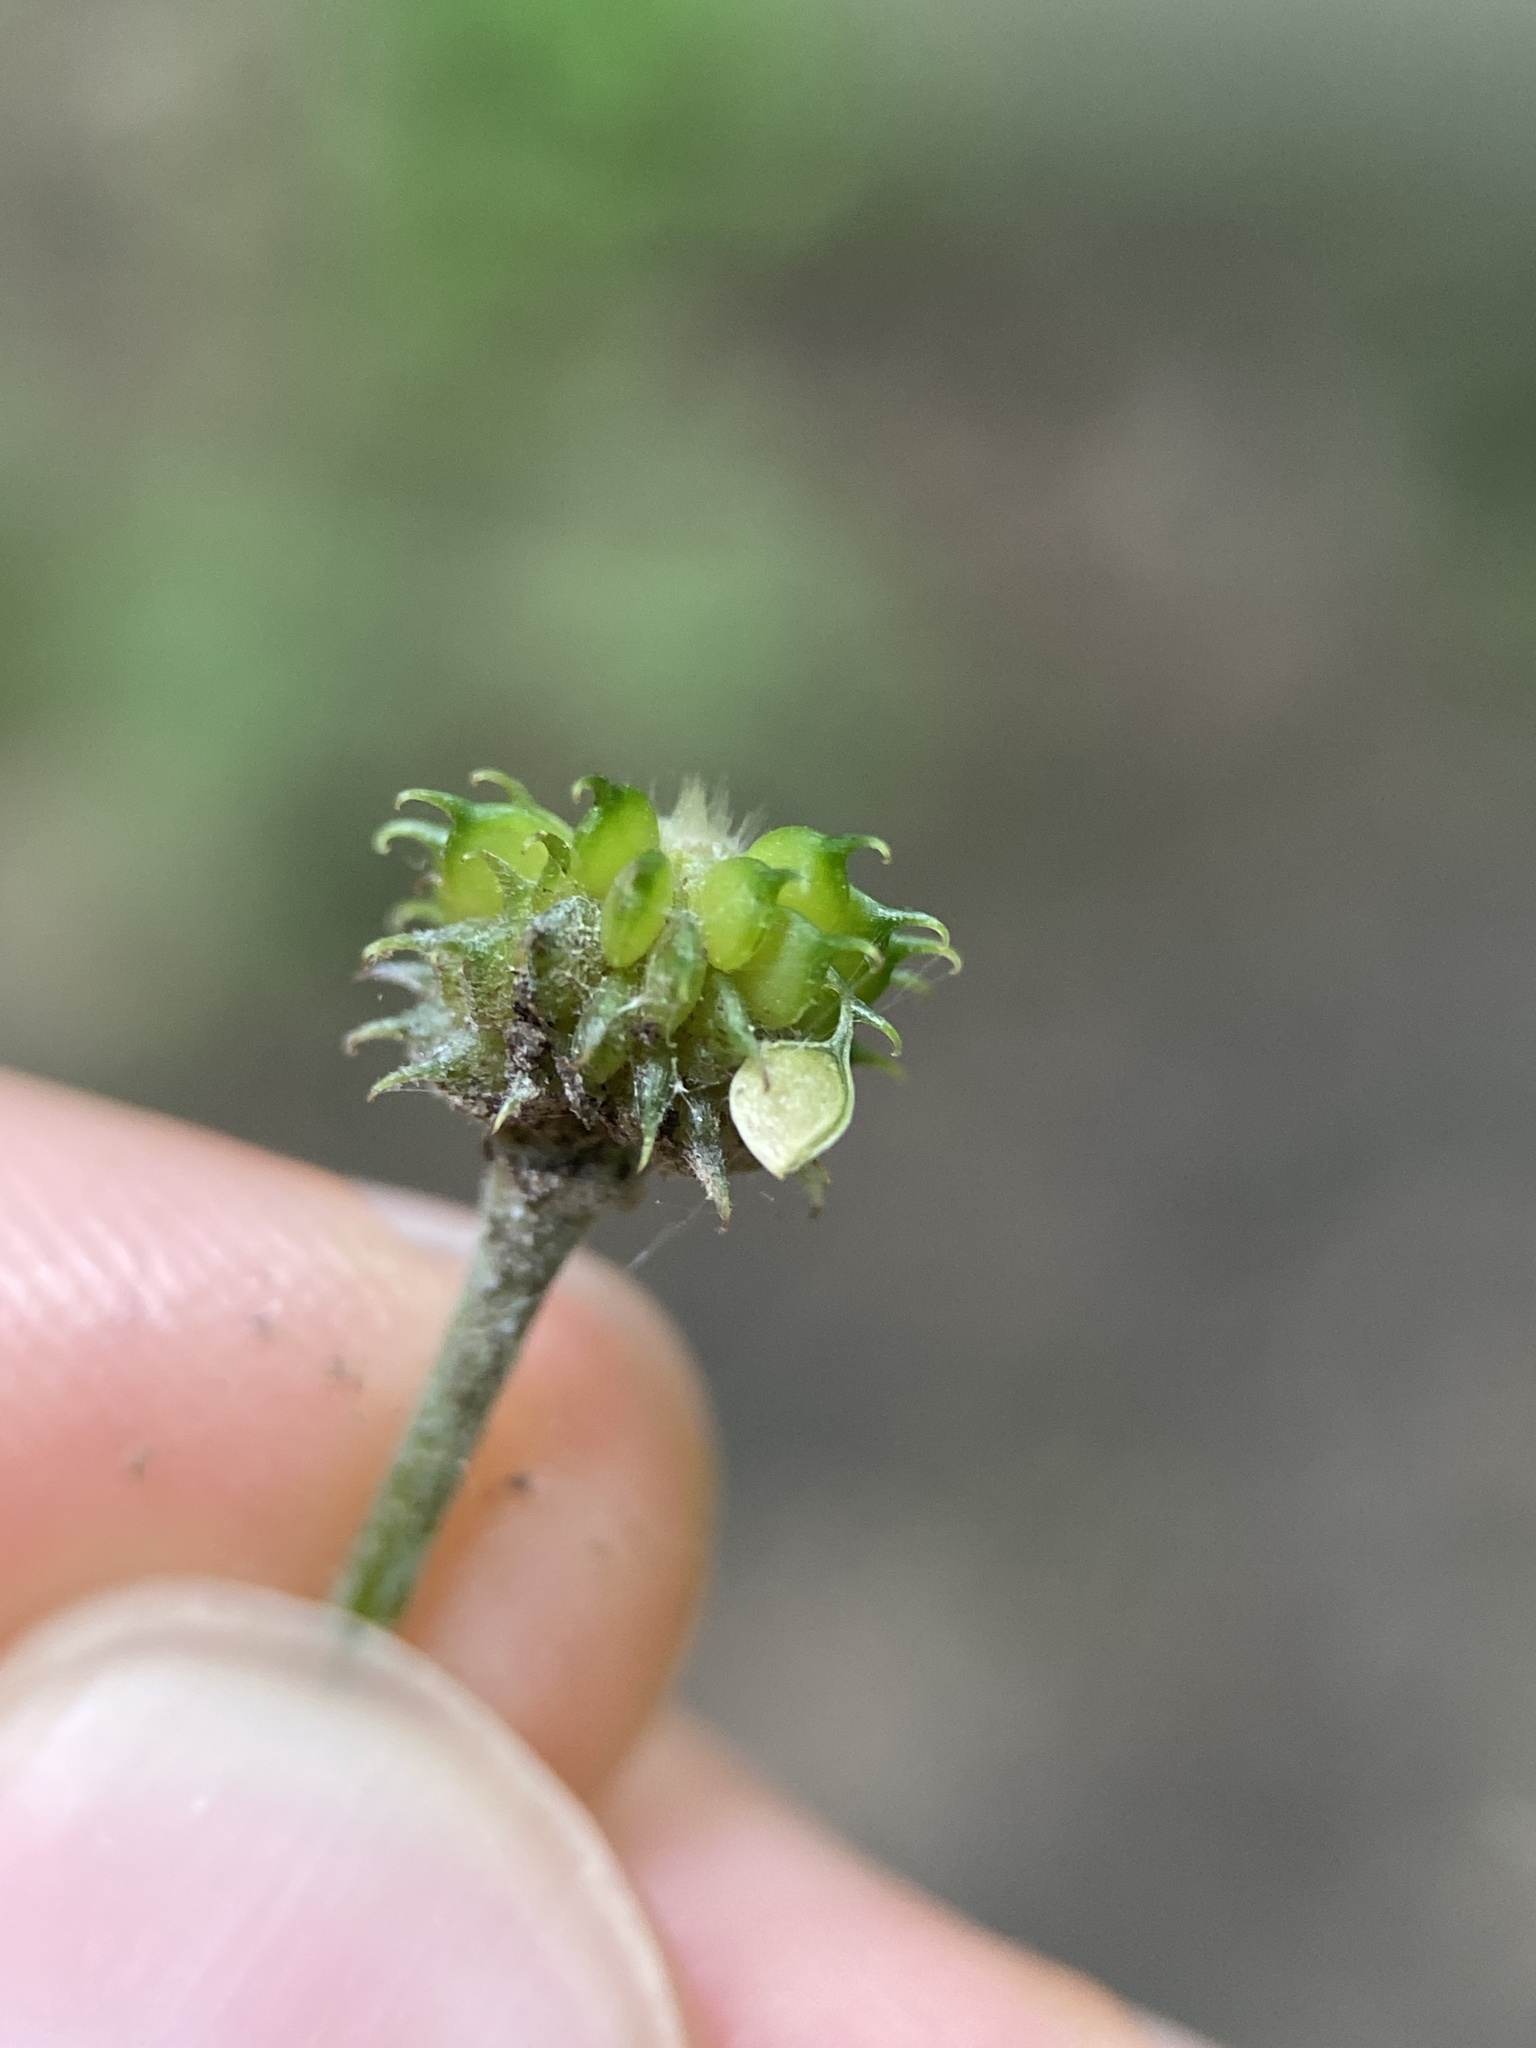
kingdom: Plantae
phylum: Tracheophyta
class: Magnoliopsida
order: Ranunculales
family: Ranunculaceae
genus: Ranunculus
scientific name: Ranunculus recurvatus
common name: Blisterwort
